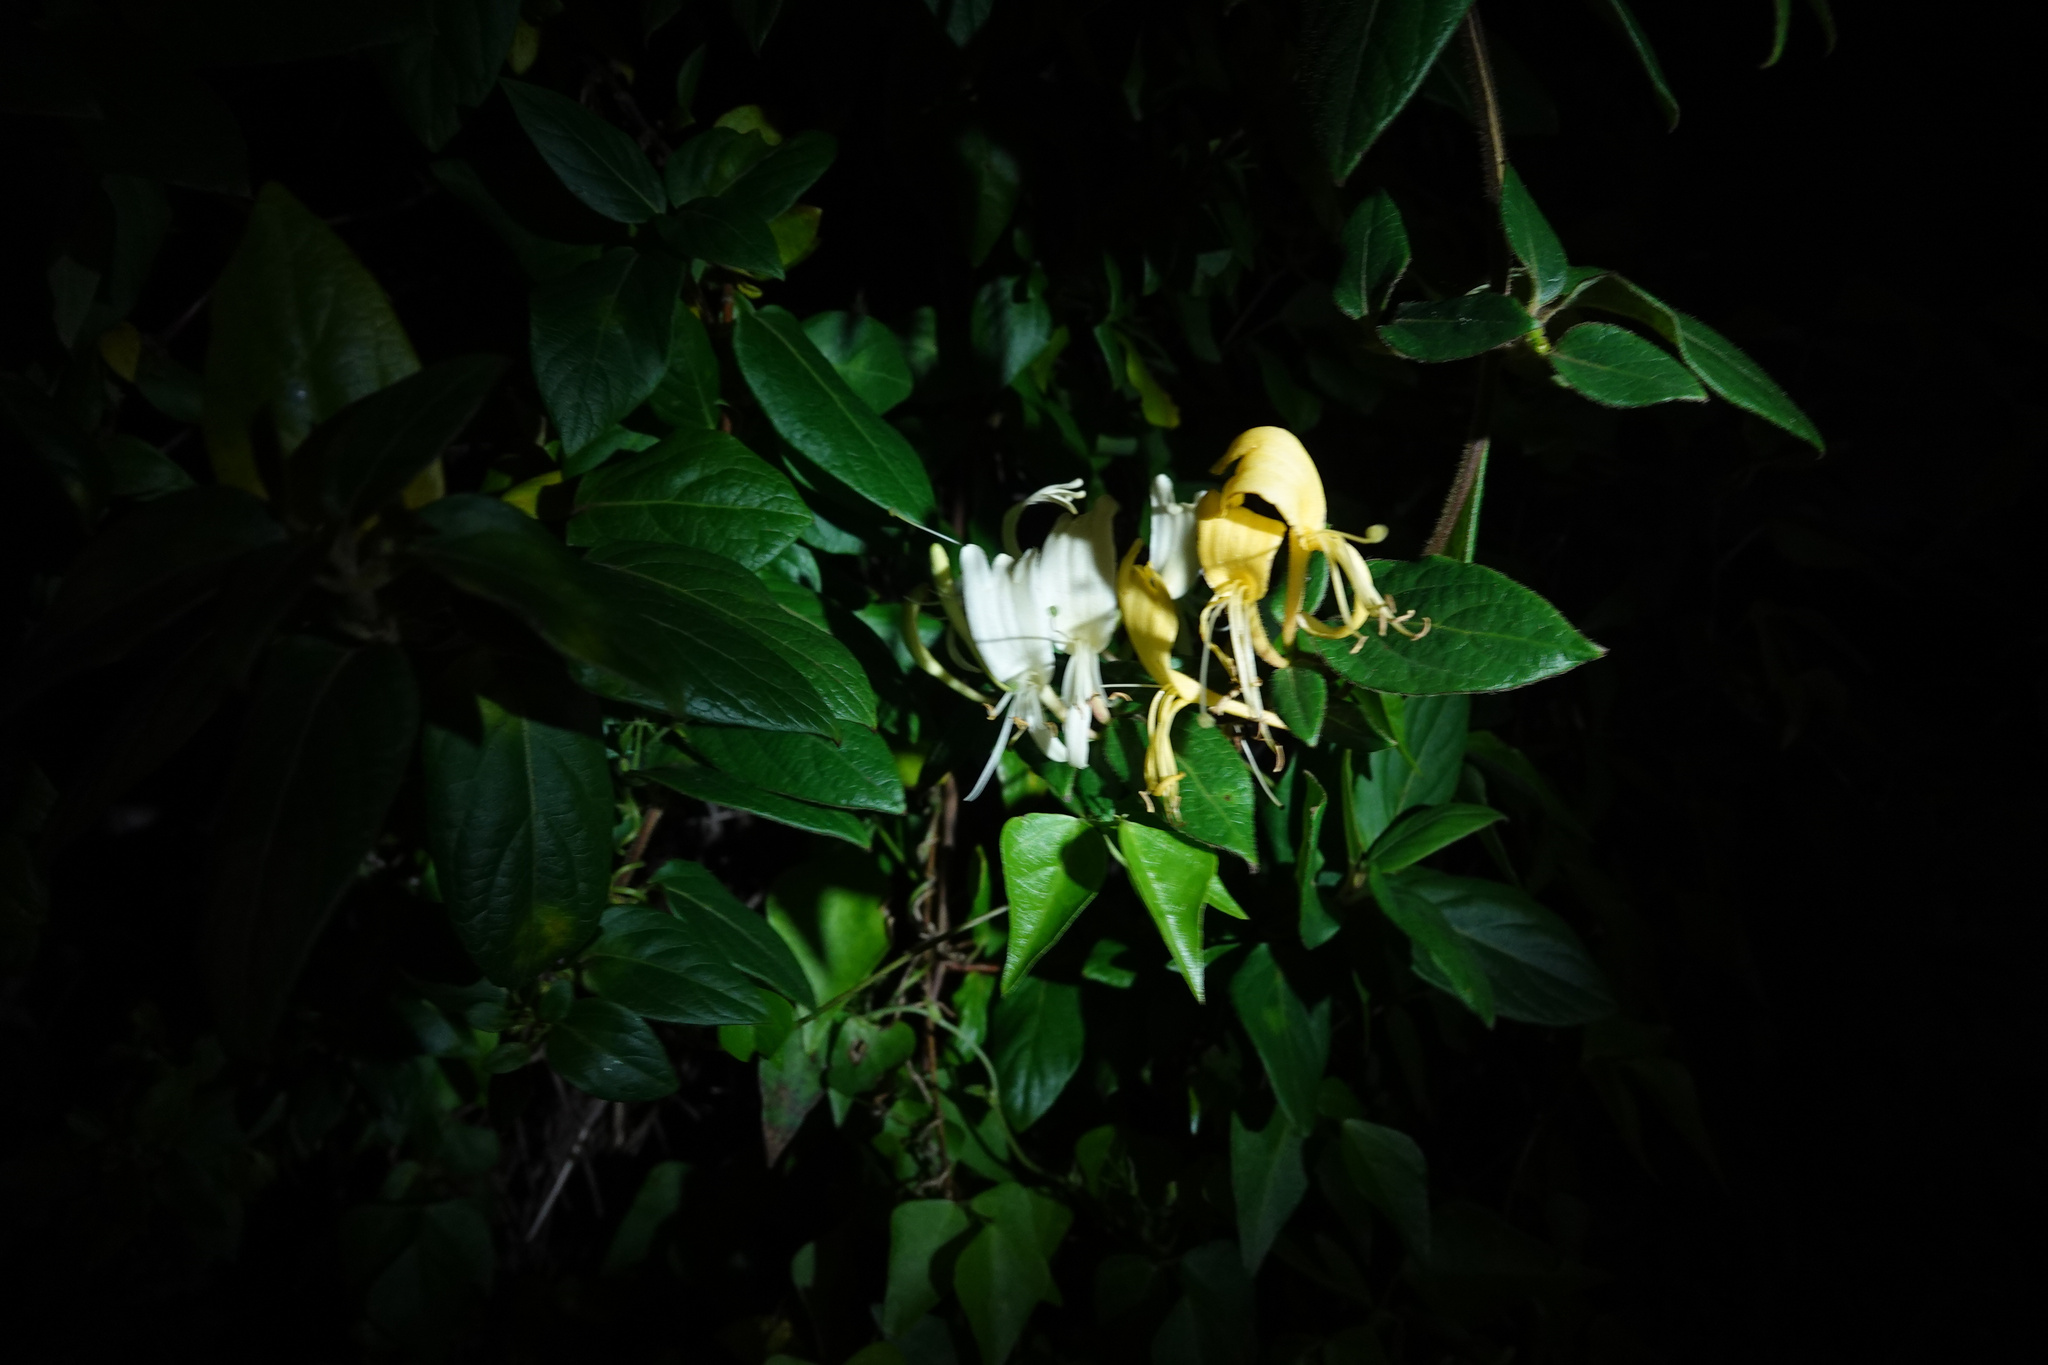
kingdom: Plantae
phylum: Tracheophyta
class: Magnoliopsida
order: Dipsacales
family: Caprifoliaceae
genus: Lonicera
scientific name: Lonicera japonica
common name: Japanese honeysuckle
